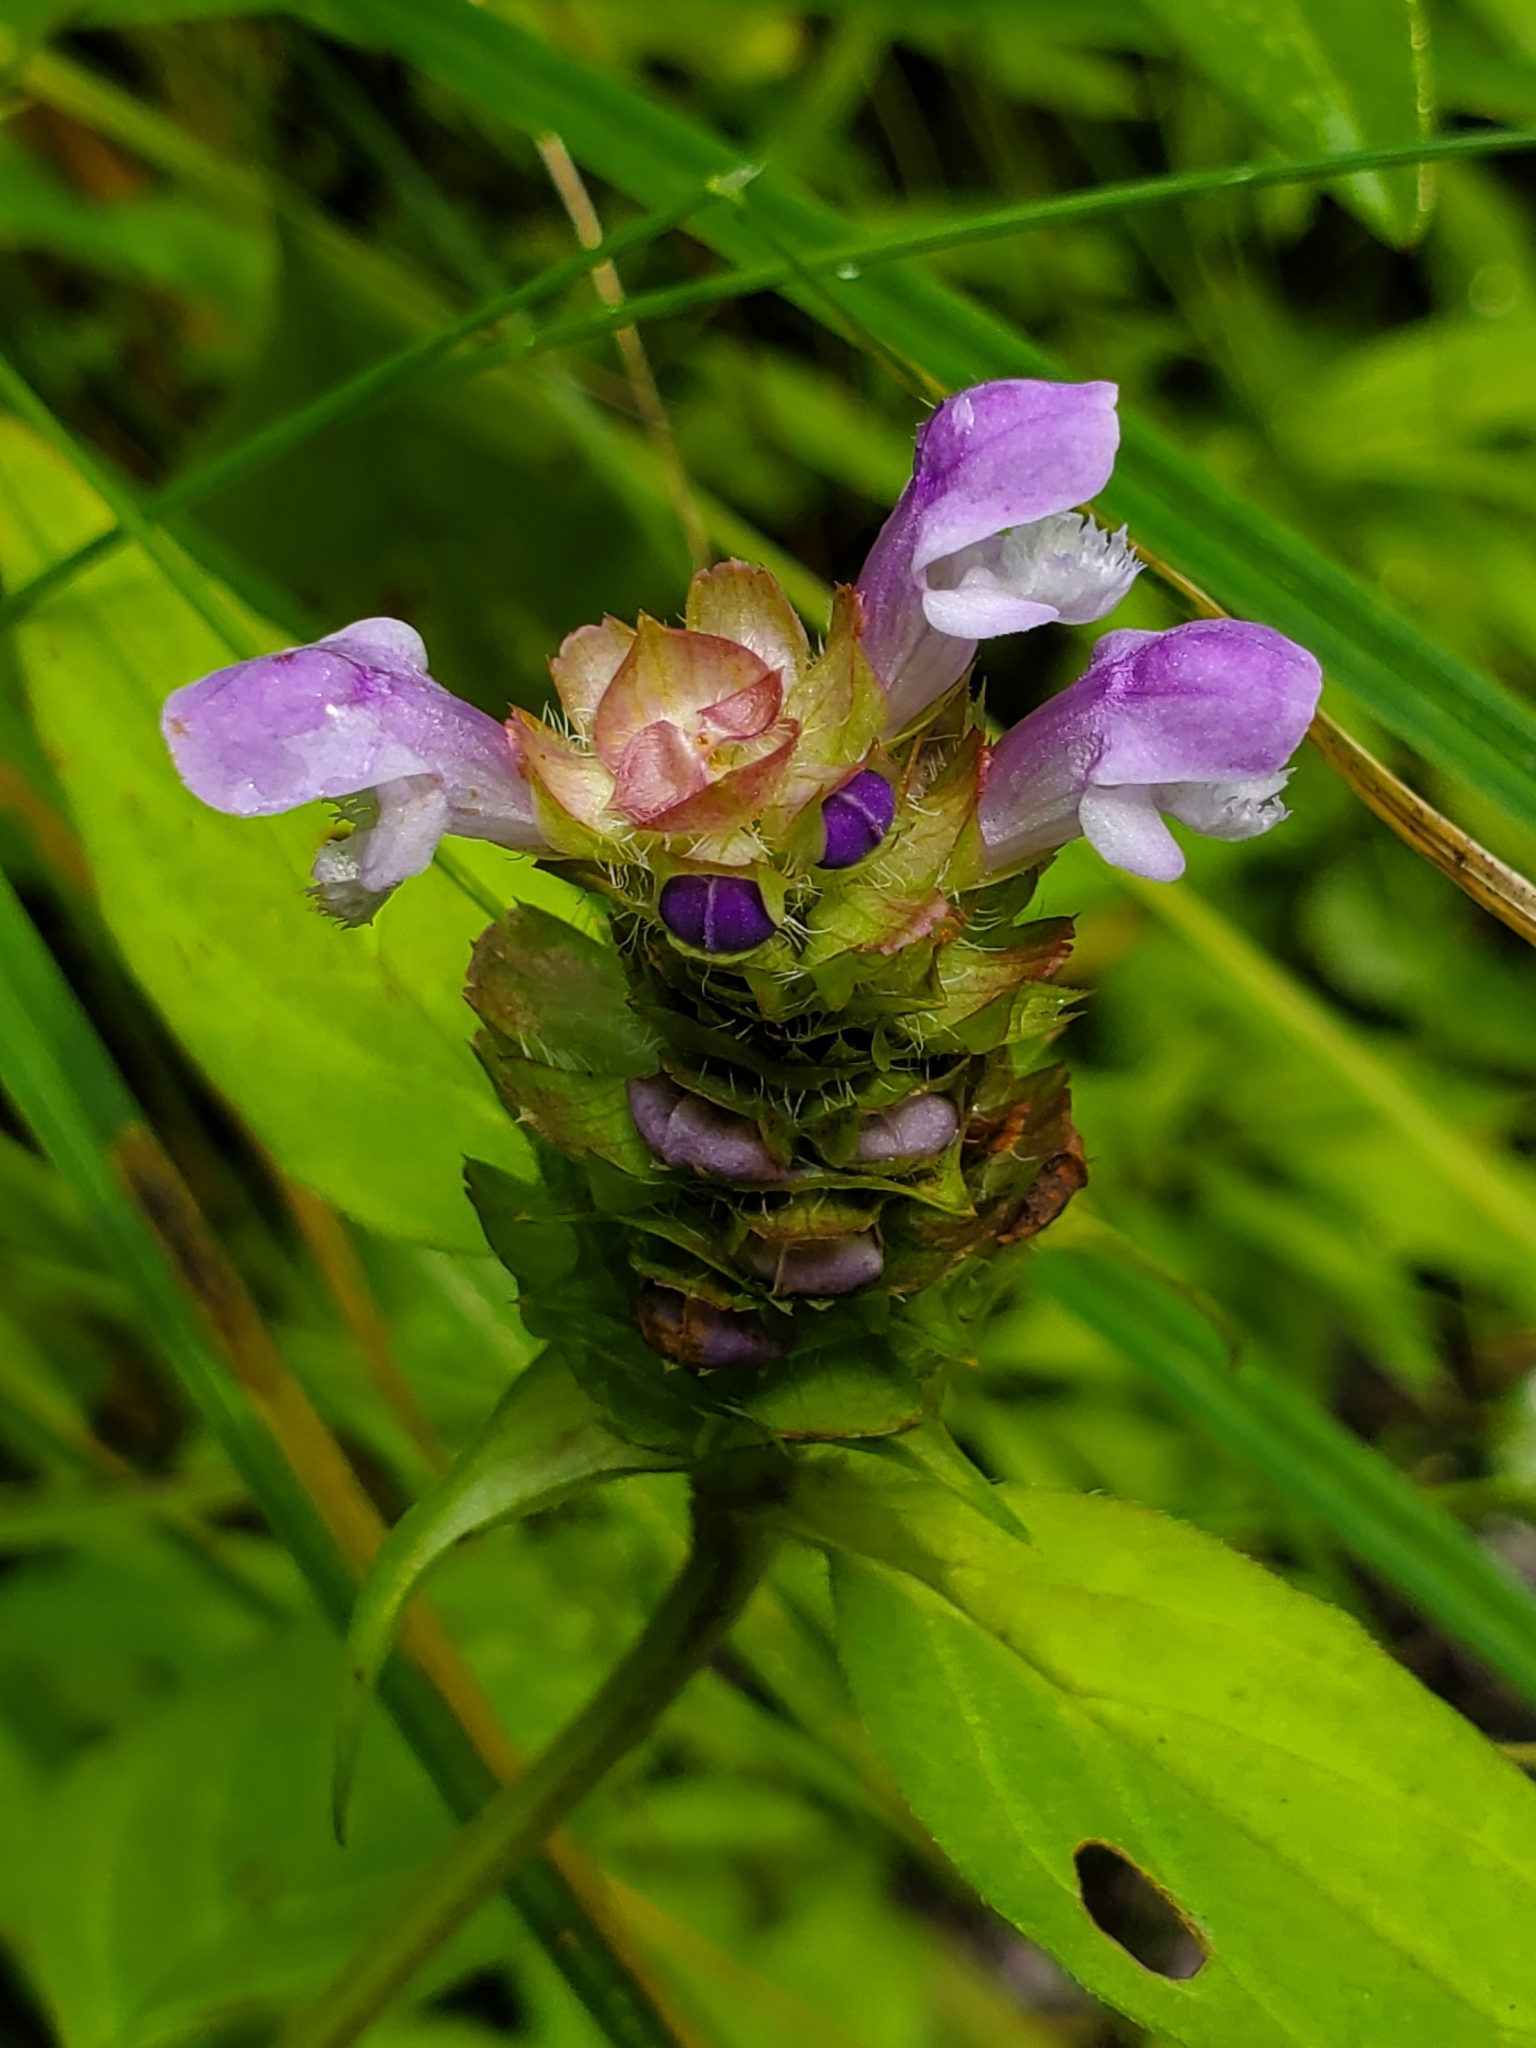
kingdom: Plantae
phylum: Tracheophyta
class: Magnoliopsida
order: Lamiales
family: Lamiaceae
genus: Prunella
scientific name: Prunella vulgaris
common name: Heal-all
